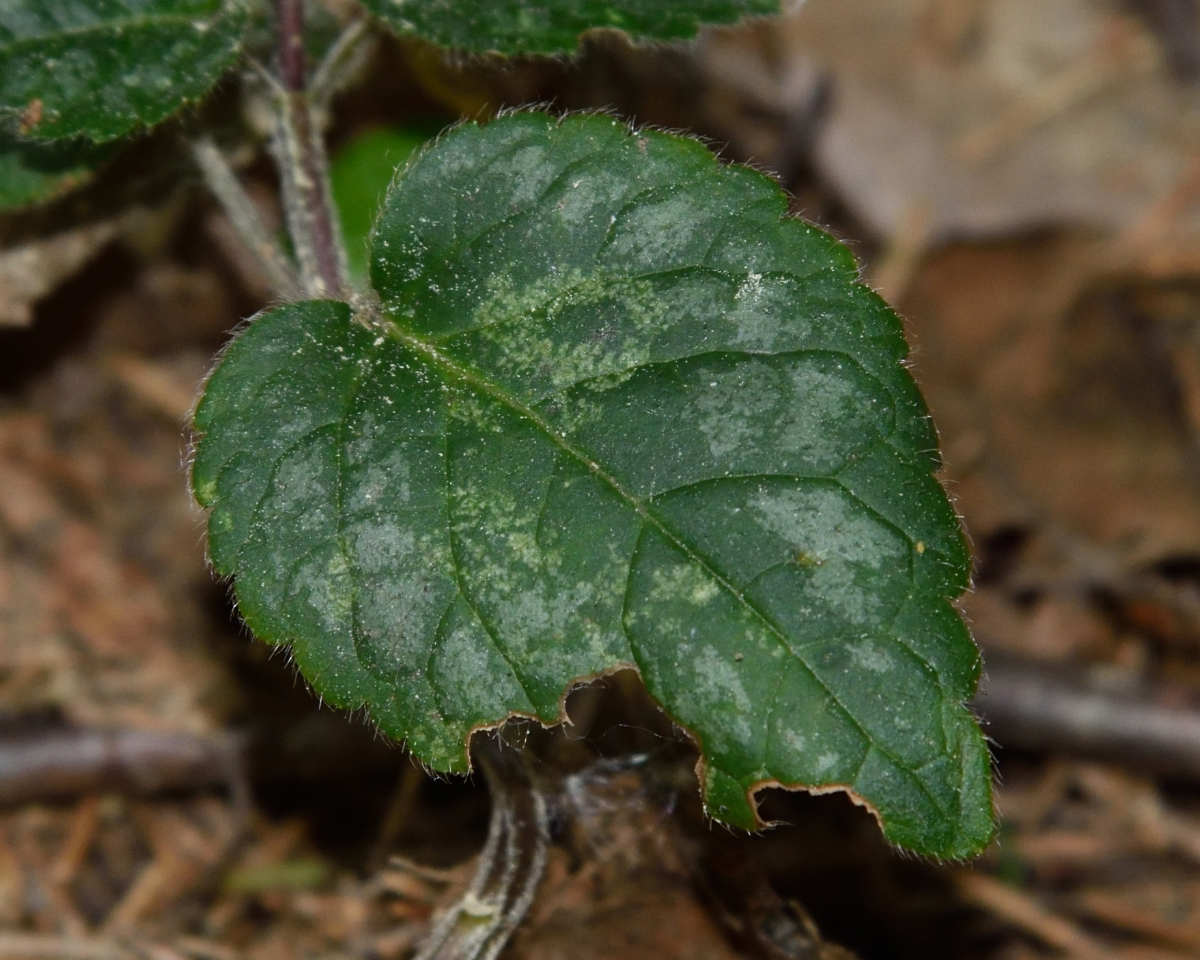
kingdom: Plantae
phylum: Tracheophyta
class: Magnoliopsida
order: Lamiales
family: Lamiaceae
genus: Lamium
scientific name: Lamium galeobdolon
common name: Yellow archangel
